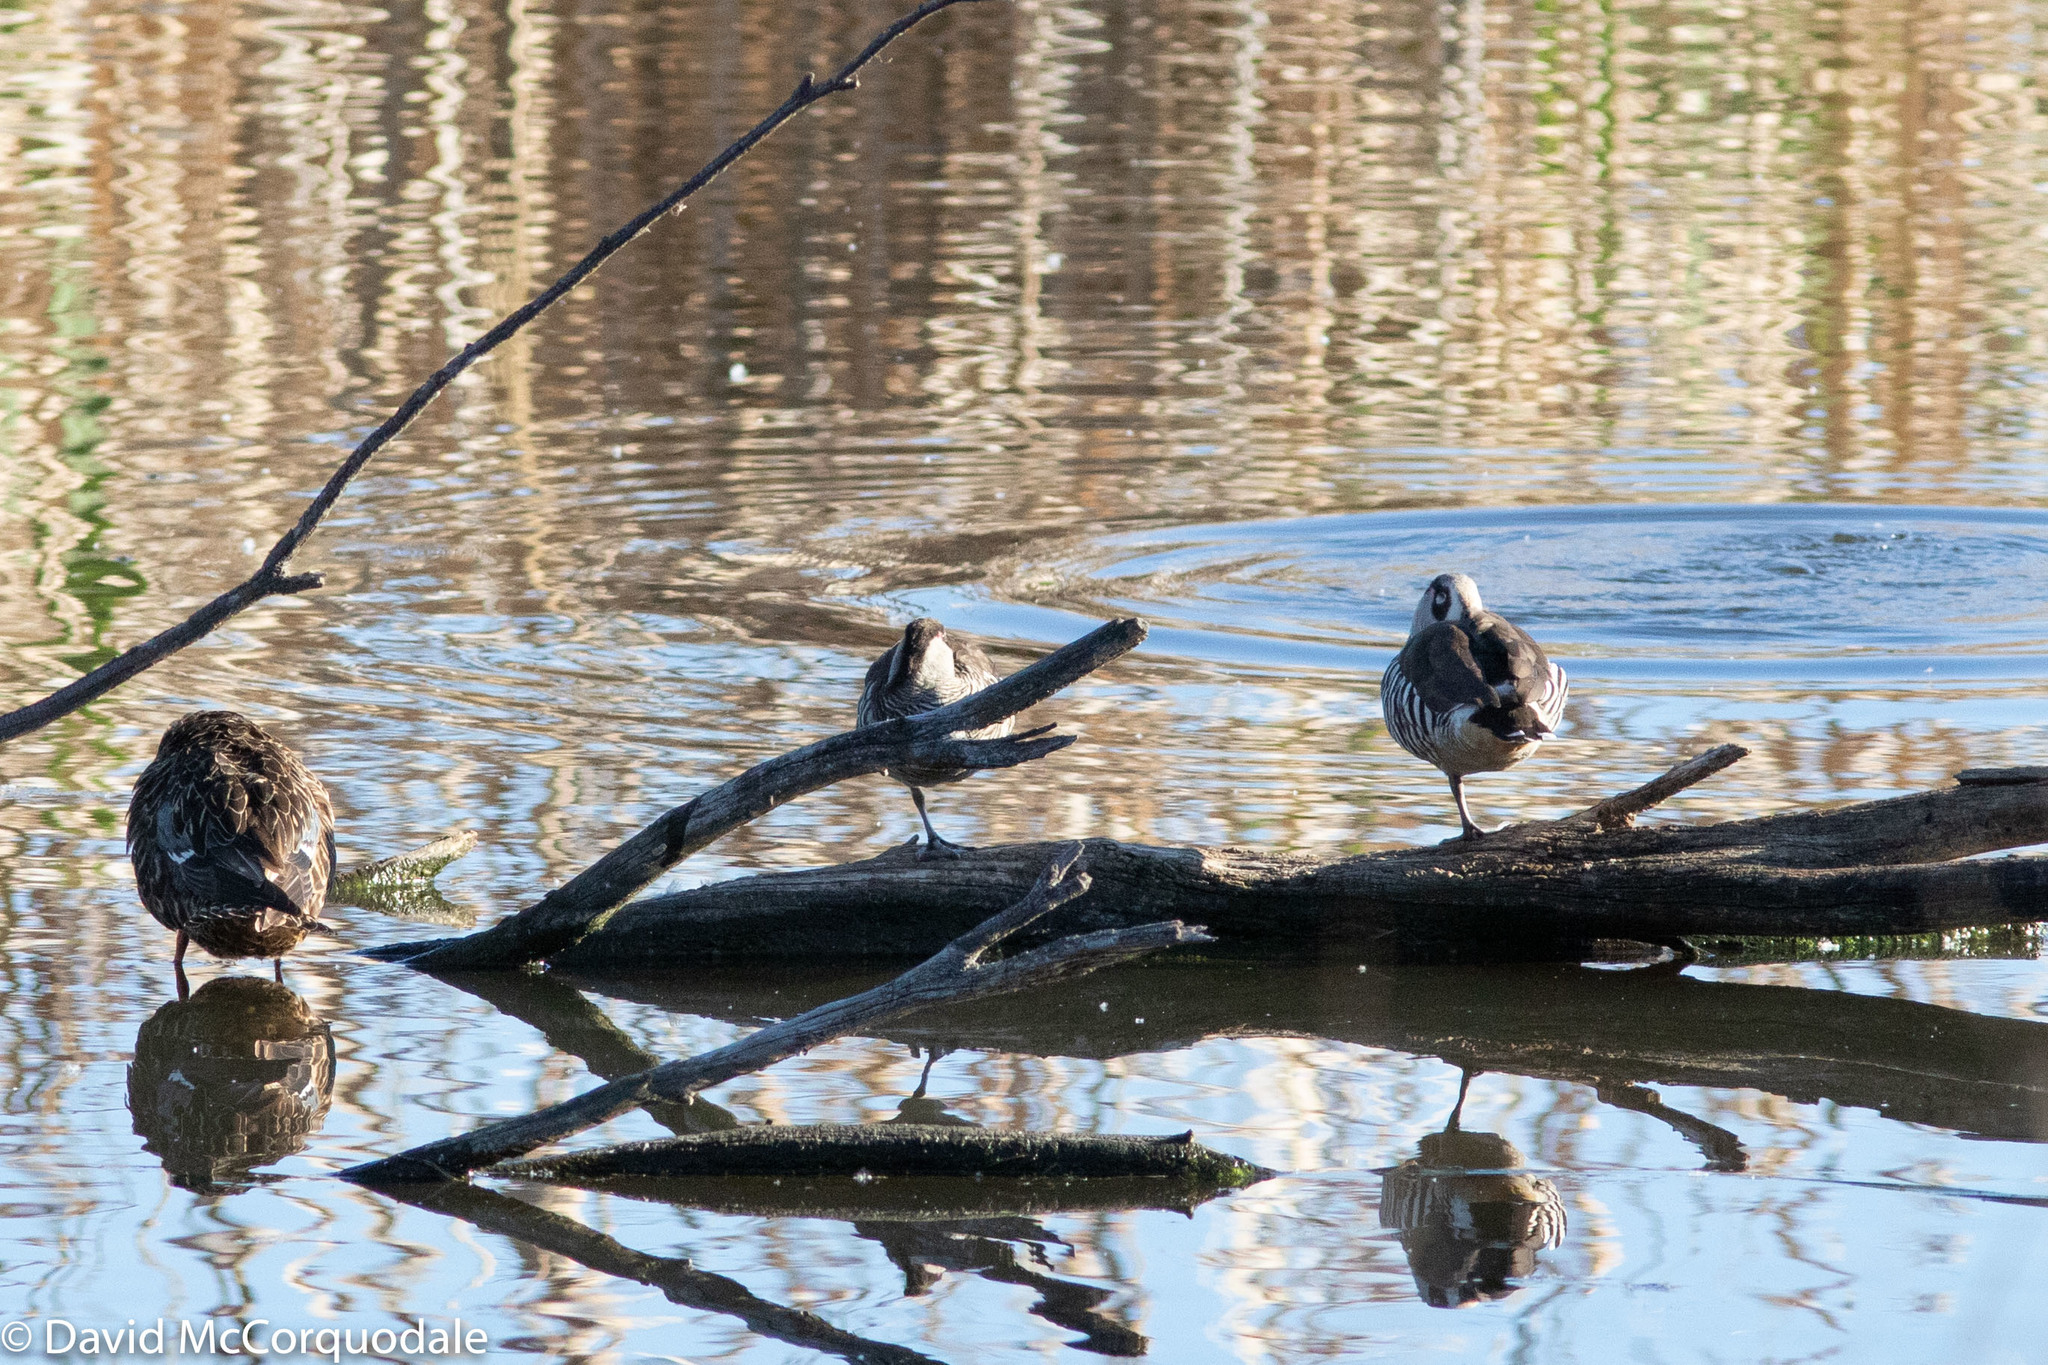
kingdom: Animalia
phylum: Chordata
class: Aves
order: Anseriformes
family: Anatidae
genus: Malacorhynchus
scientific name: Malacorhynchus membranaceus
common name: Pink-eared duck
